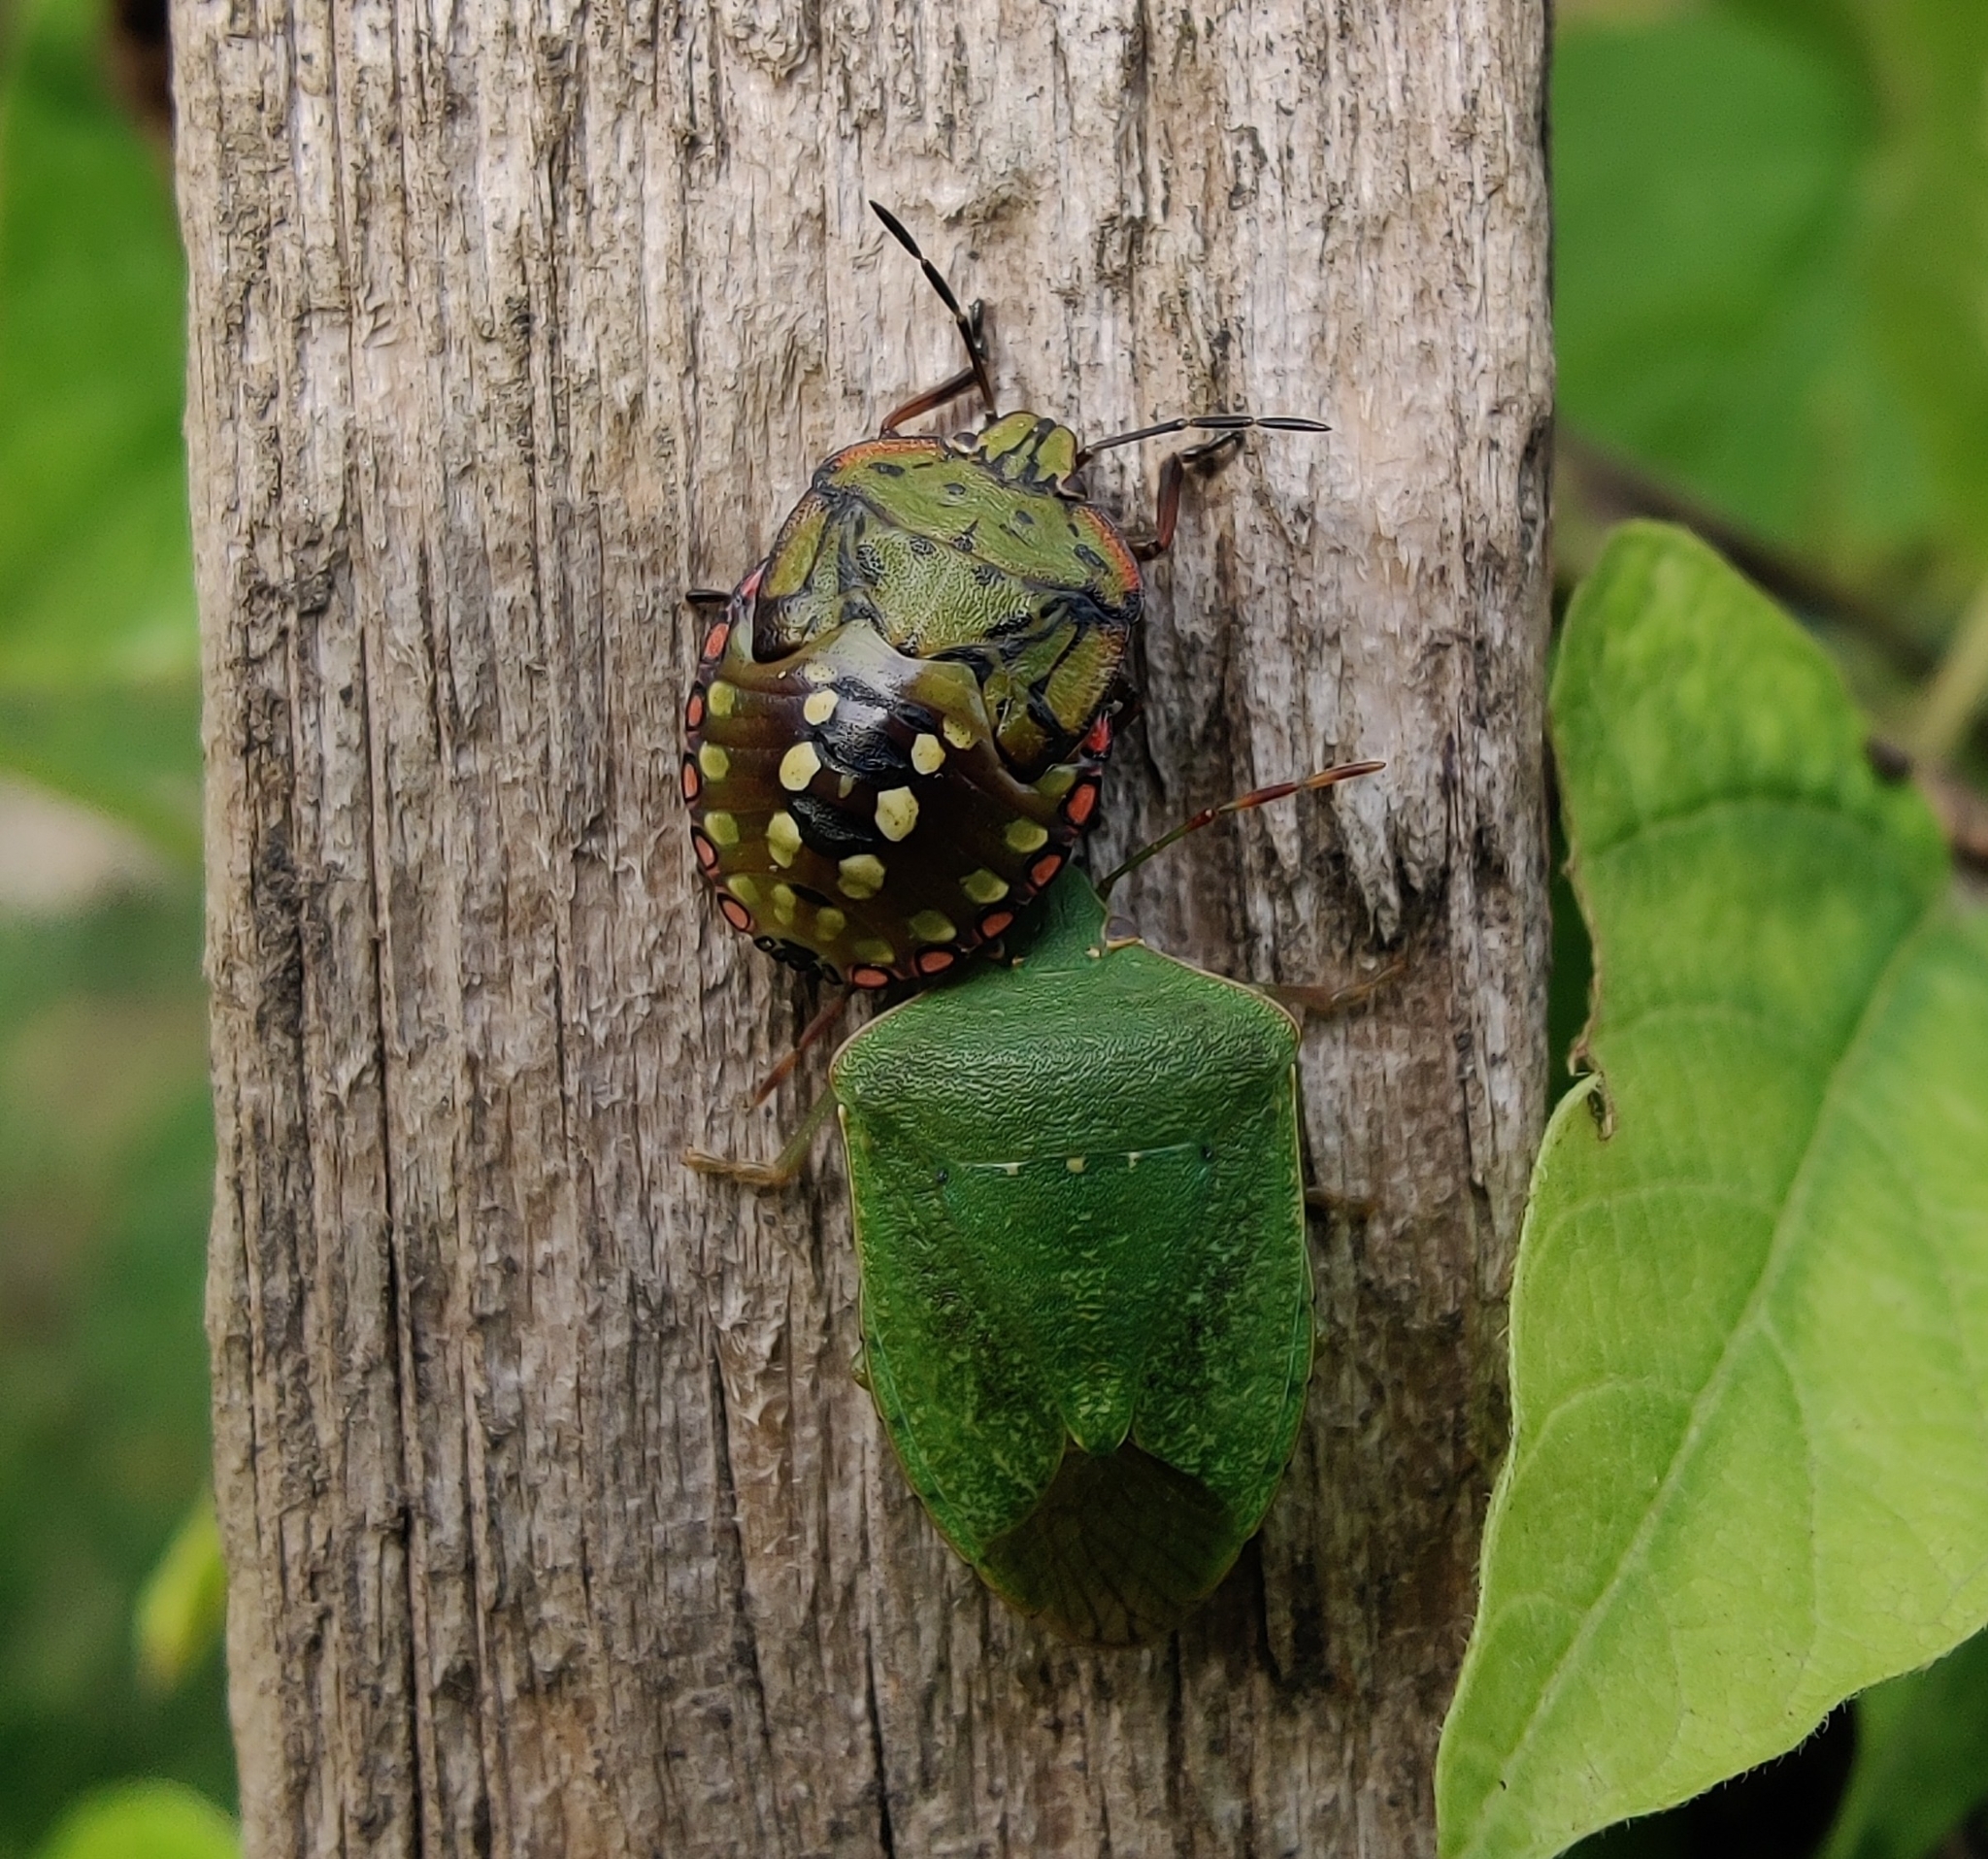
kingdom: Animalia
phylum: Arthropoda
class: Insecta
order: Hemiptera
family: Pentatomidae
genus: Nezara
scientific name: Nezara viridula
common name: Southern green stink bug
